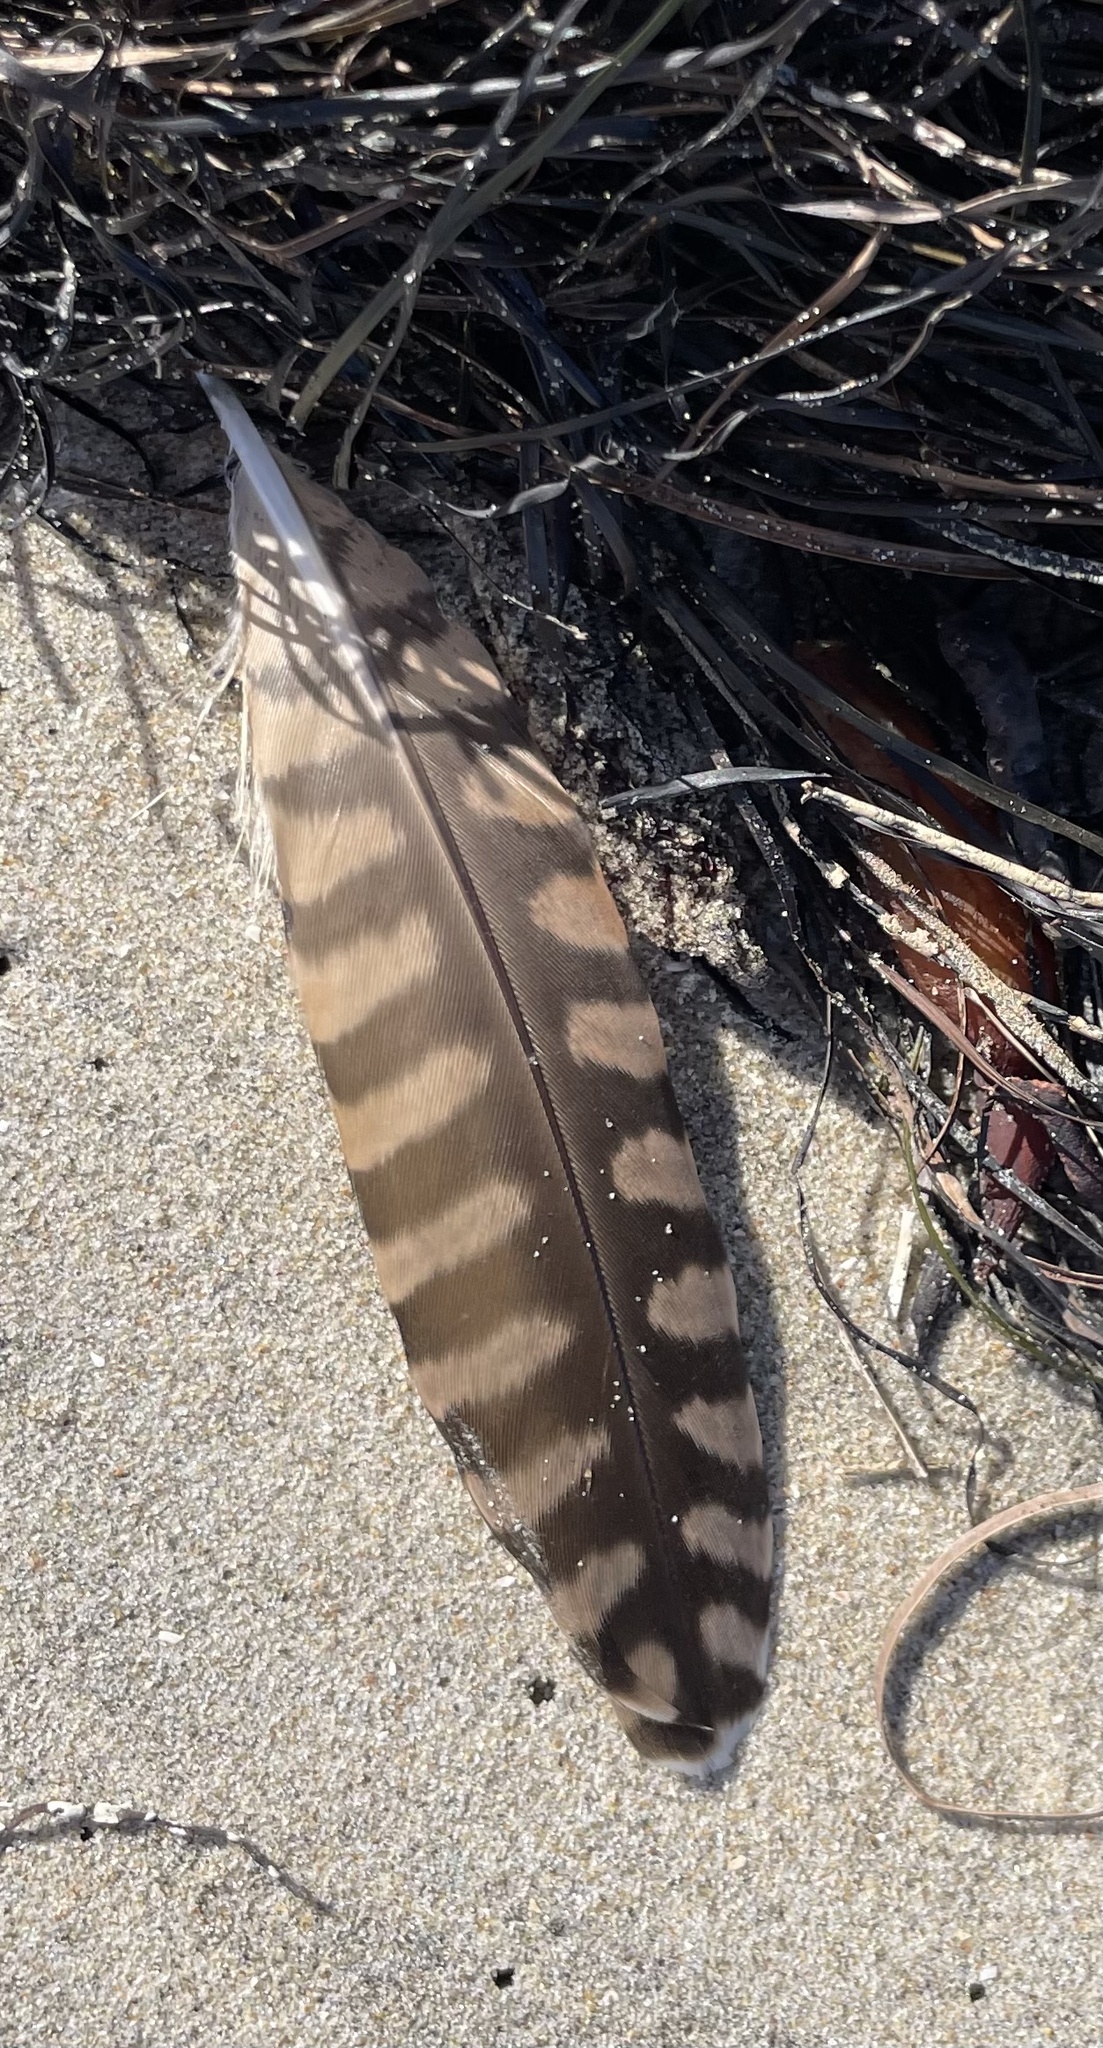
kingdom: Animalia
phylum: Chordata
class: Aves
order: Charadriiformes
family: Scolopacidae
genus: Numenius
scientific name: Numenius americanus
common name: Long-billed curlew
